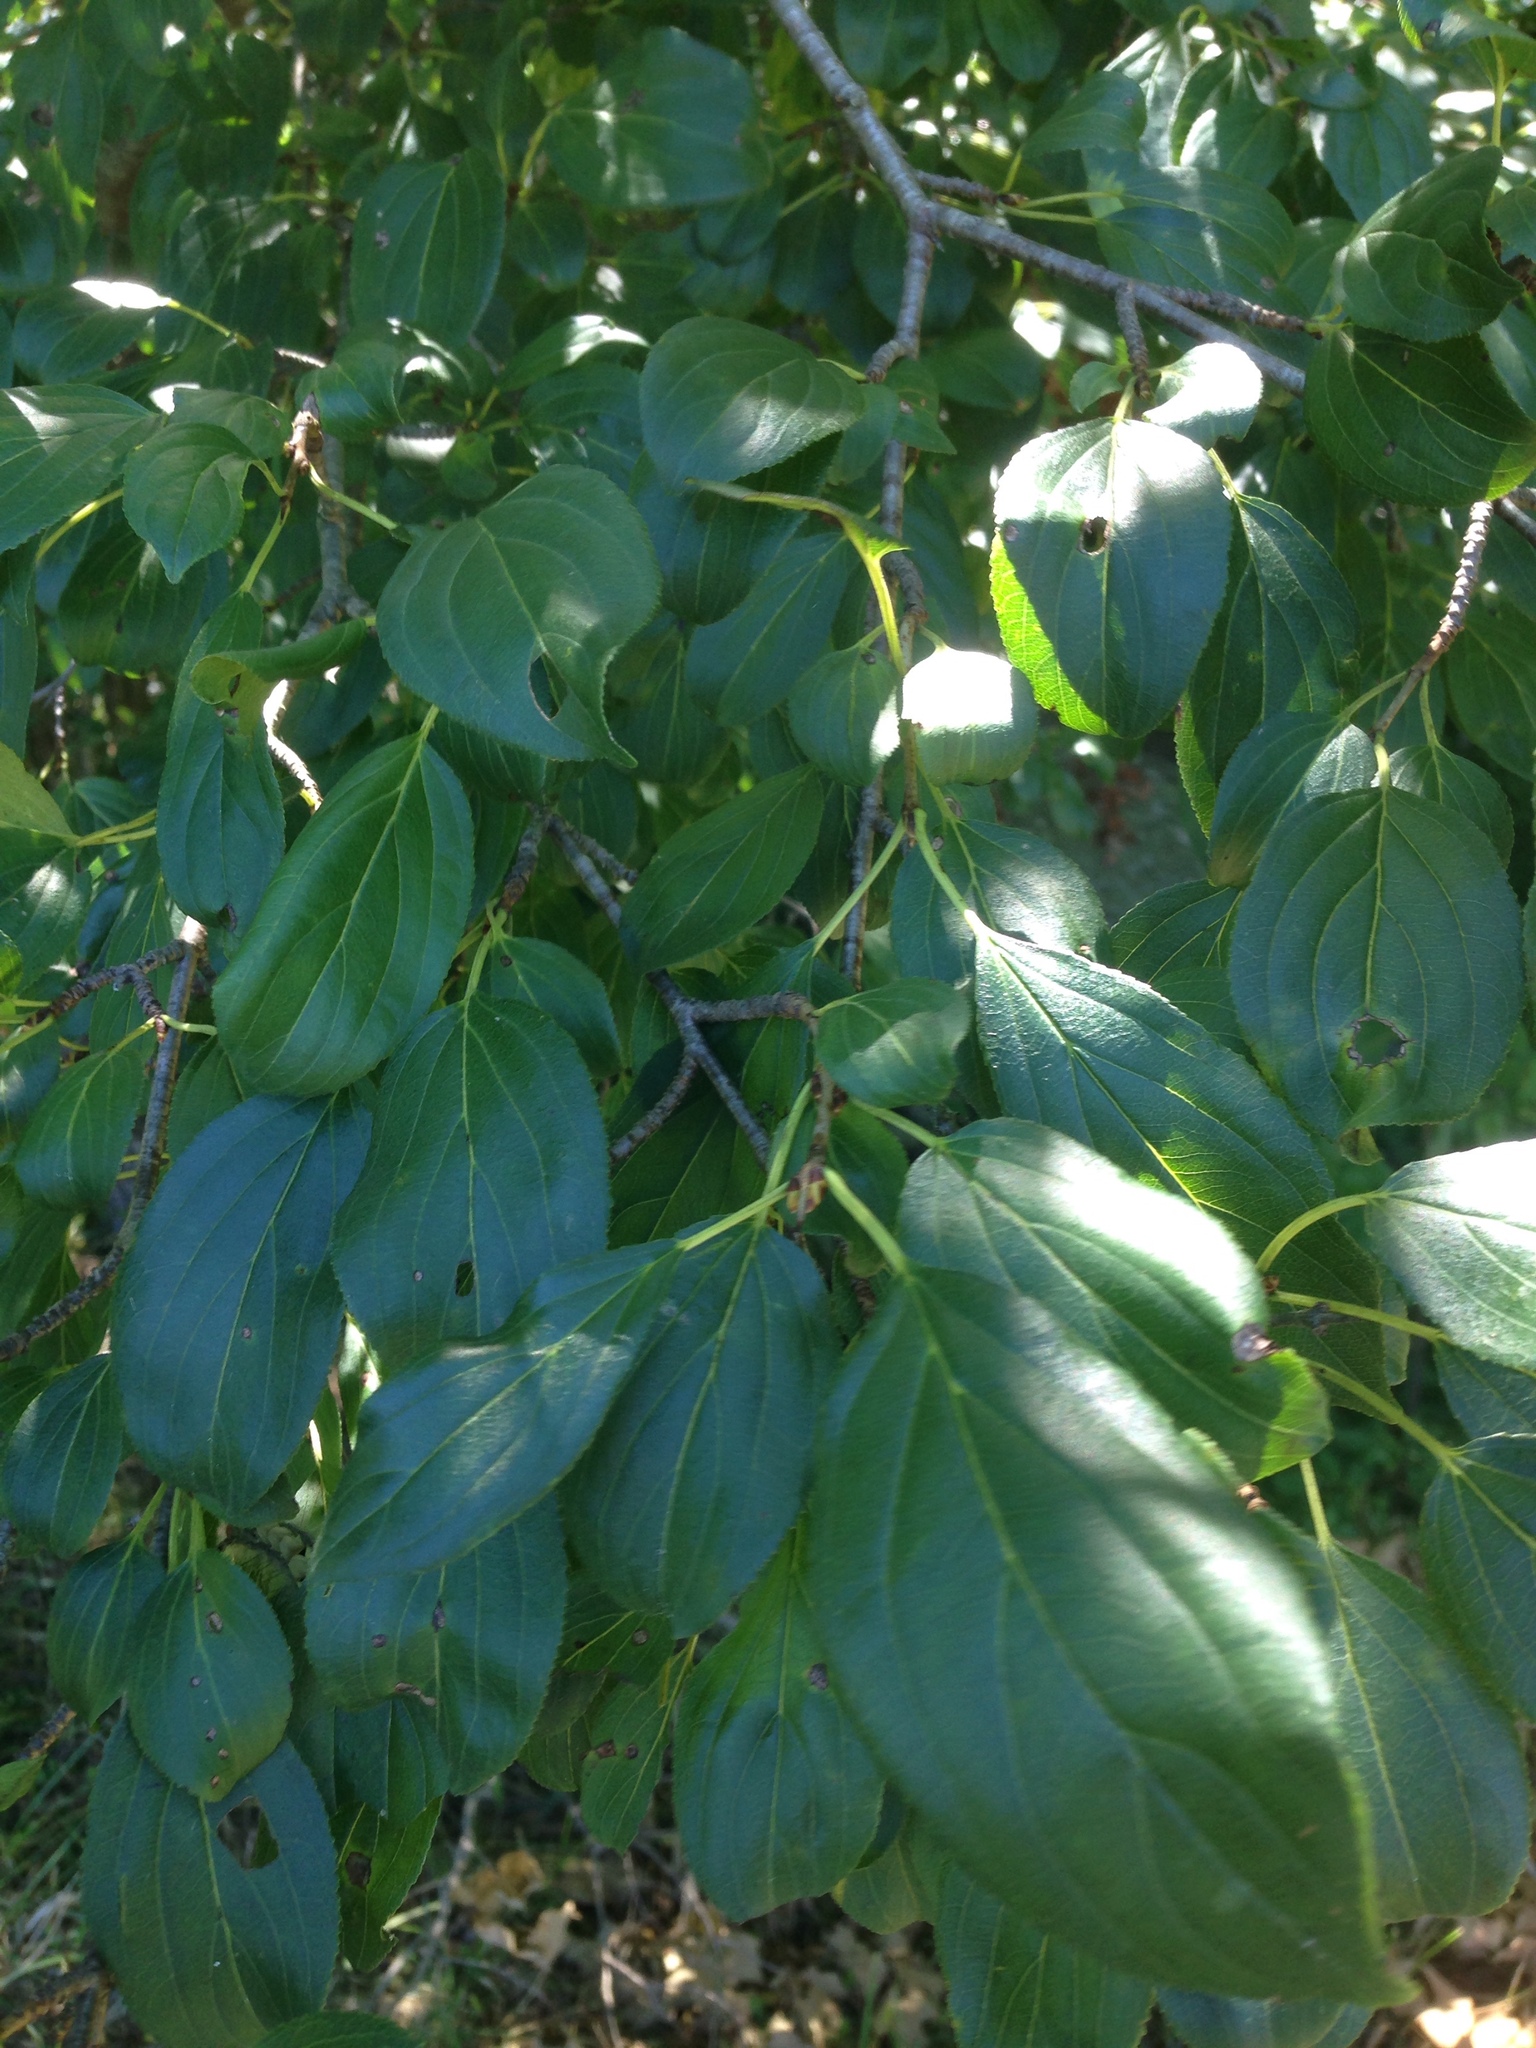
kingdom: Plantae
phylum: Tracheophyta
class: Magnoliopsida
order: Rosales
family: Rhamnaceae
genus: Rhamnus
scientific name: Rhamnus cathartica
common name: Common buckthorn
